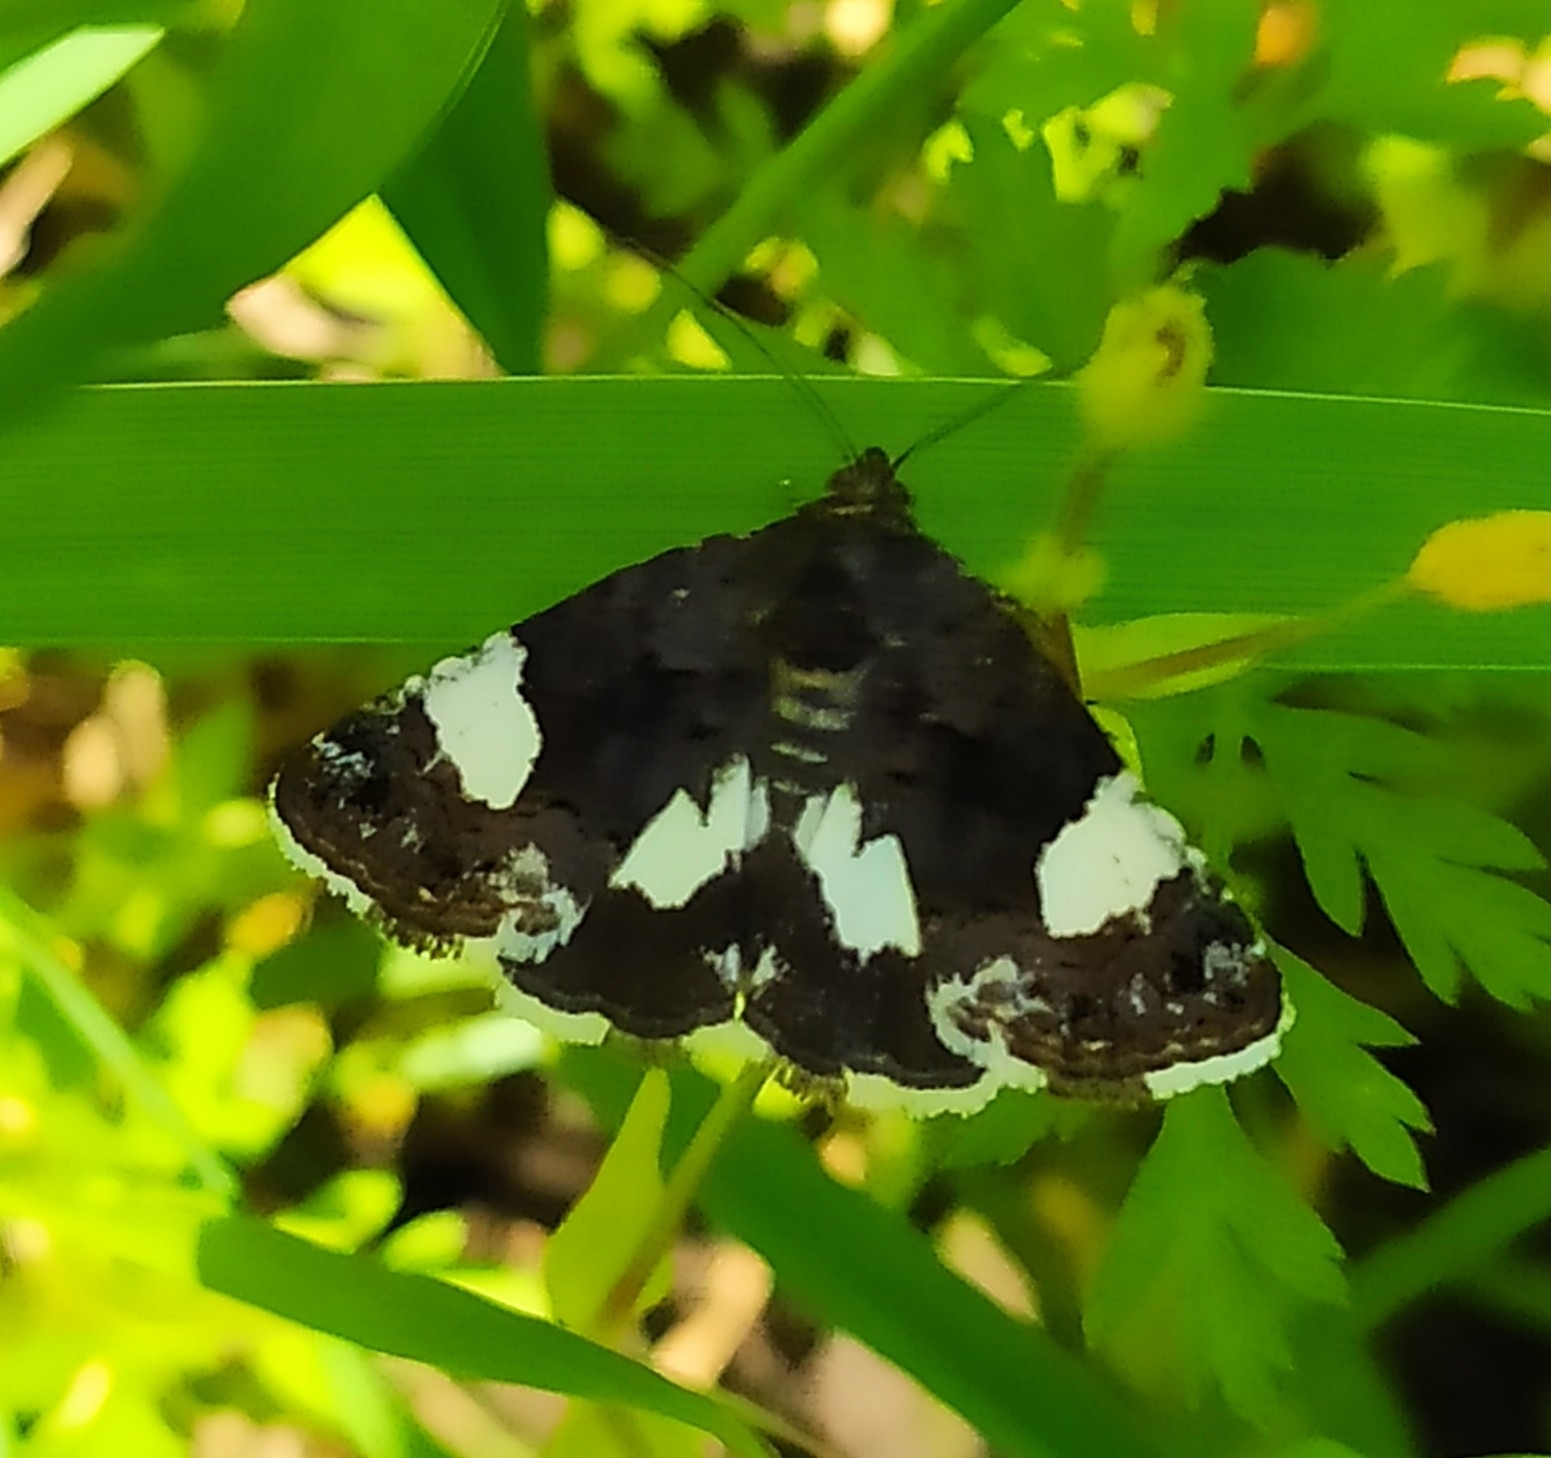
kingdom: Animalia
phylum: Arthropoda
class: Insecta
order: Lepidoptera
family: Erebidae
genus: Tyta
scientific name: Tyta luctuosa
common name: Four-spotted
